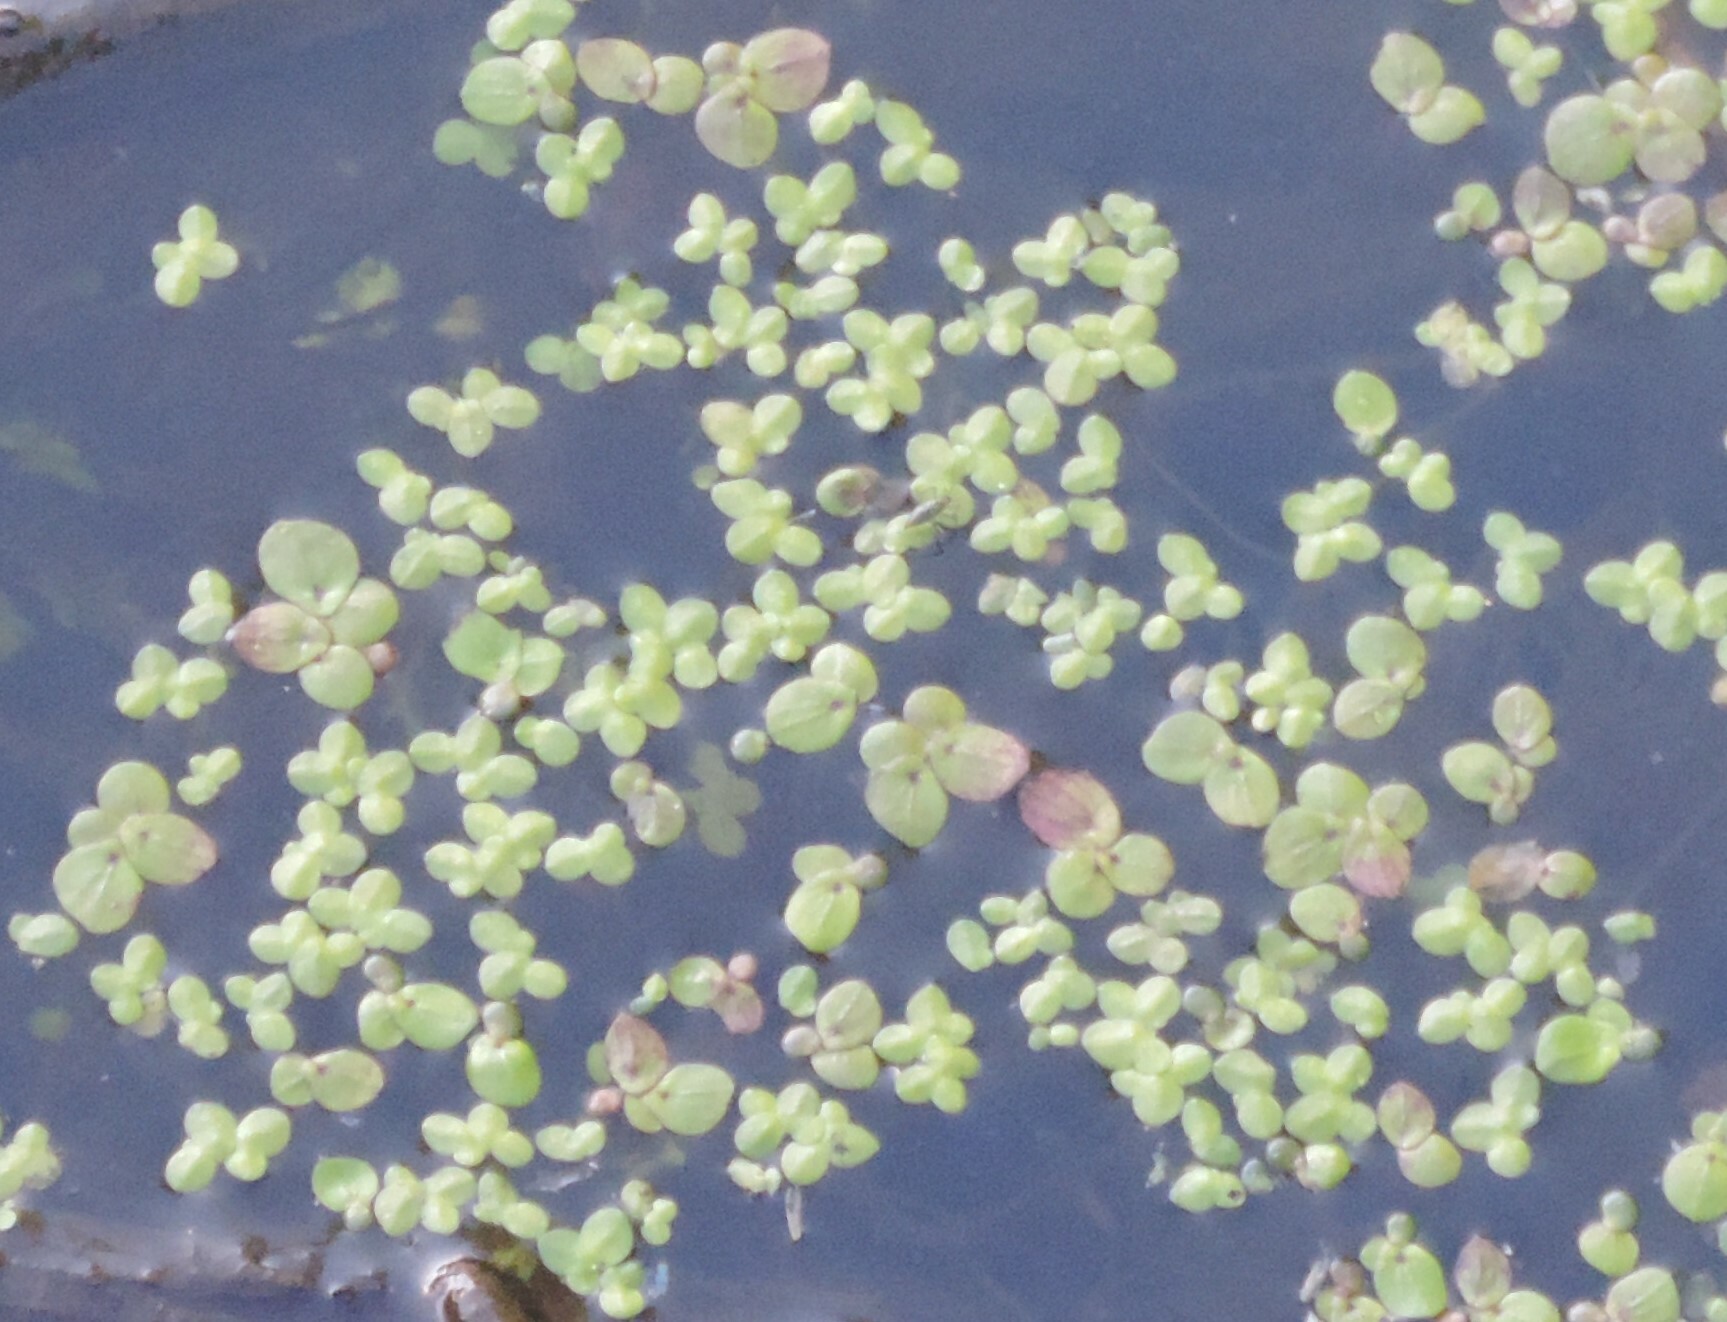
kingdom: Plantae
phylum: Tracheophyta
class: Liliopsida
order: Alismatales
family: Araceae
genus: Spirodela
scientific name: Spirodela polyrhiza
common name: Great duckweed
